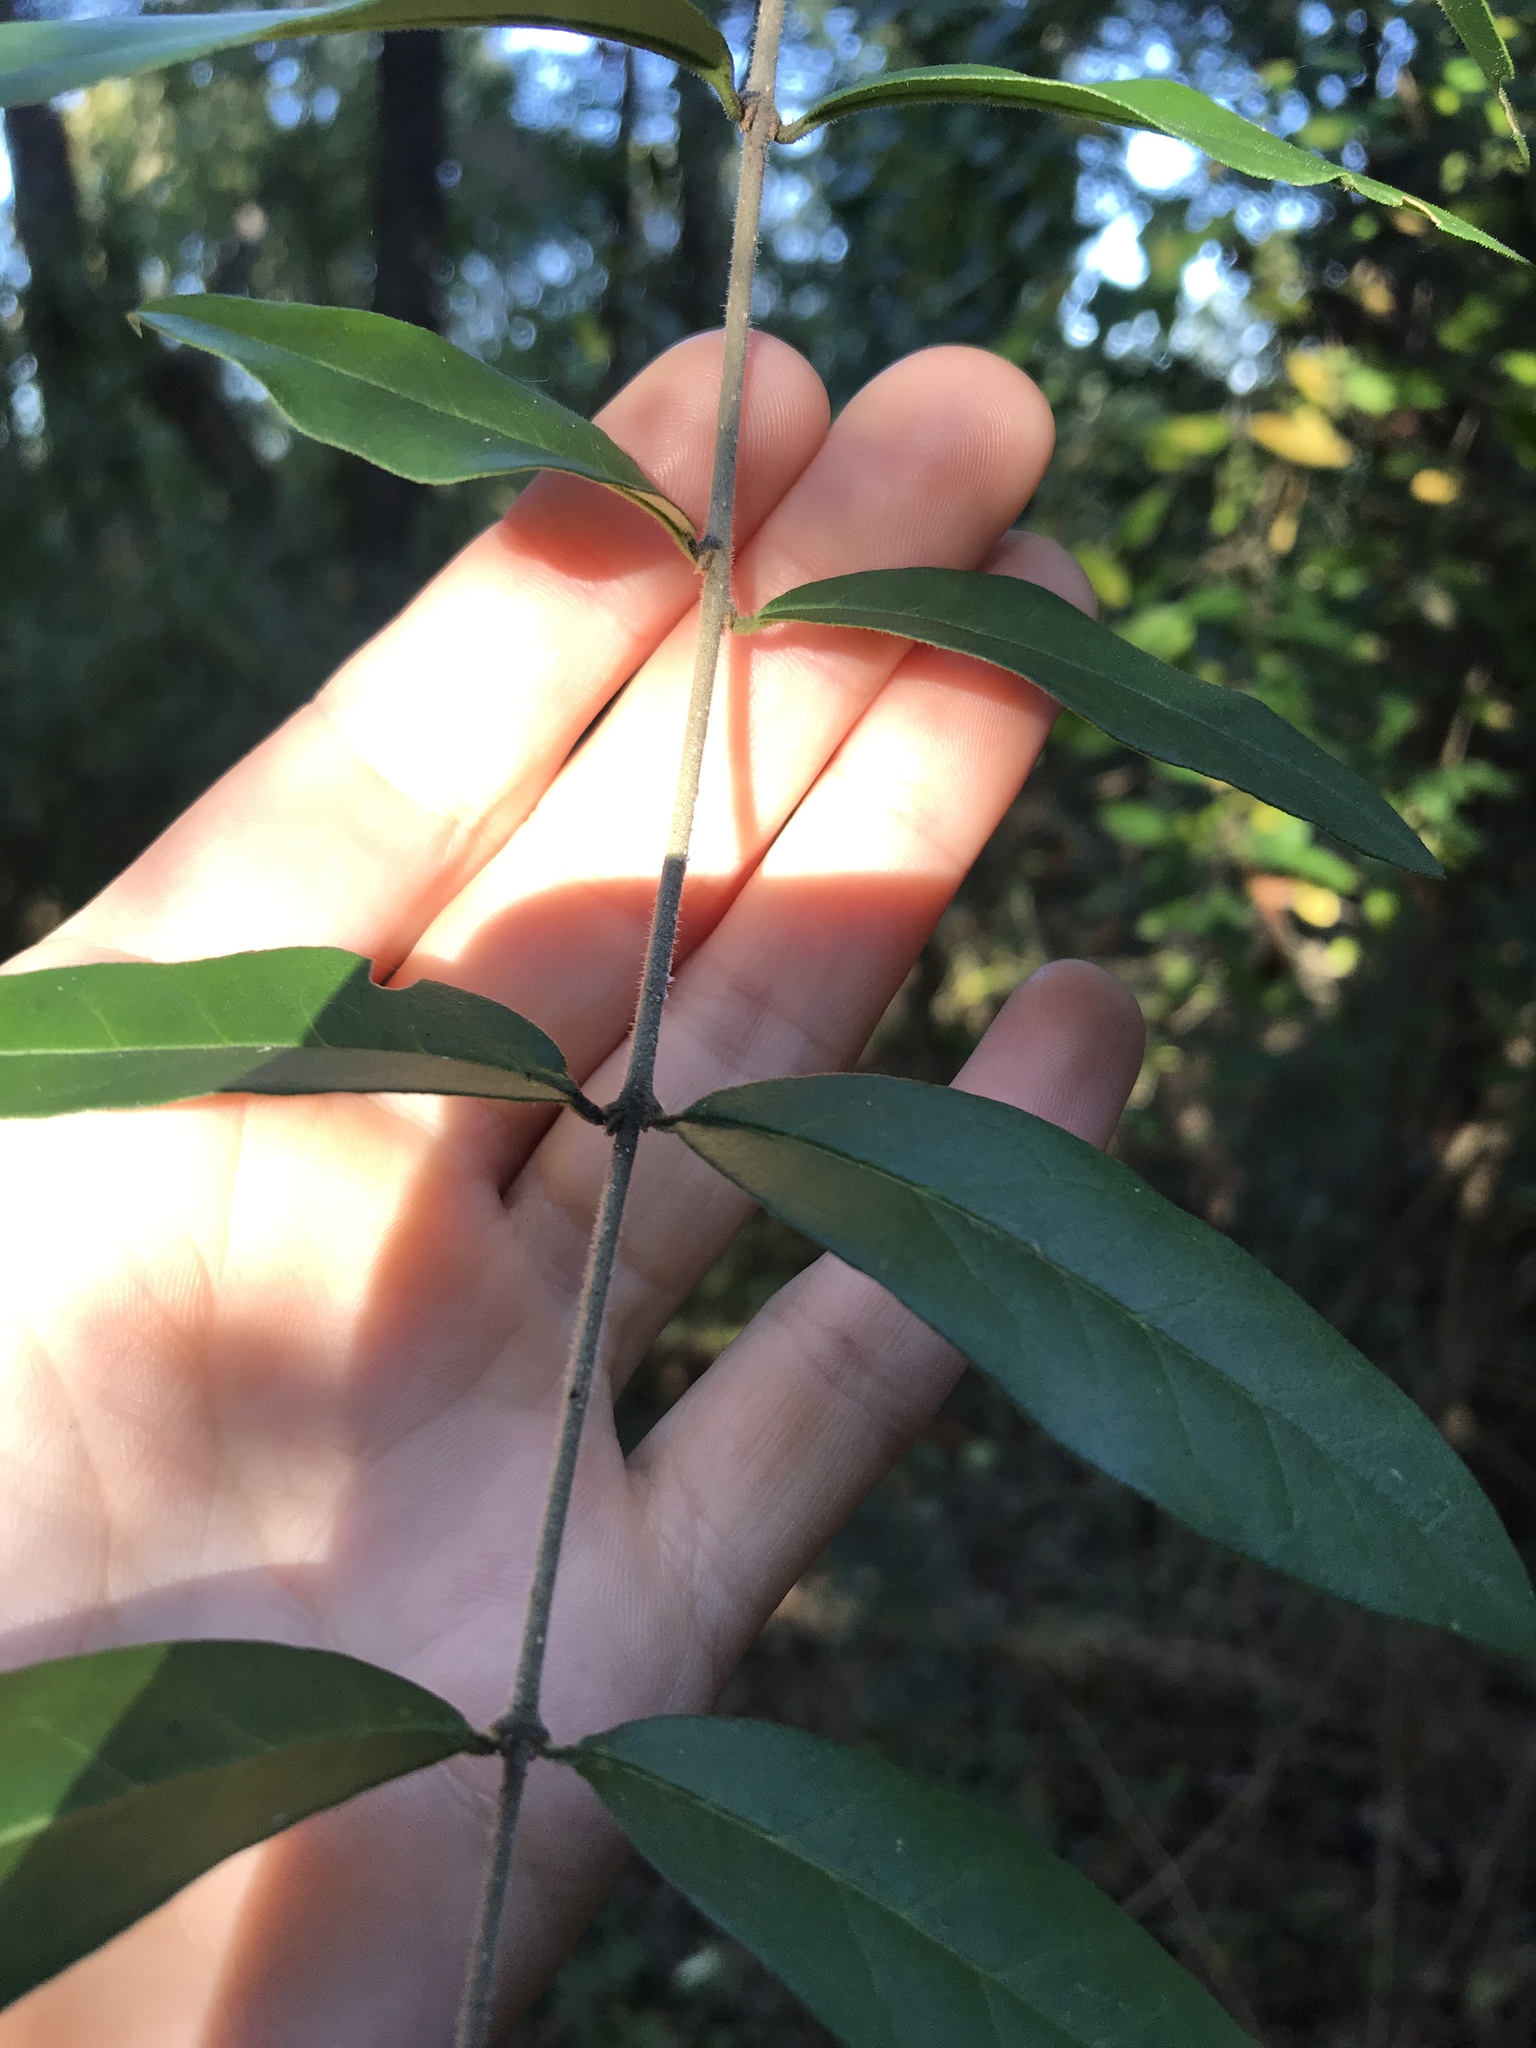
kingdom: Plantae
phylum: Tracheophyta
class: Magnoliopsida
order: Lamiales
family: Oleaceae
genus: Ligustrum
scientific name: Ligustrum obtusifolium
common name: Border privet
